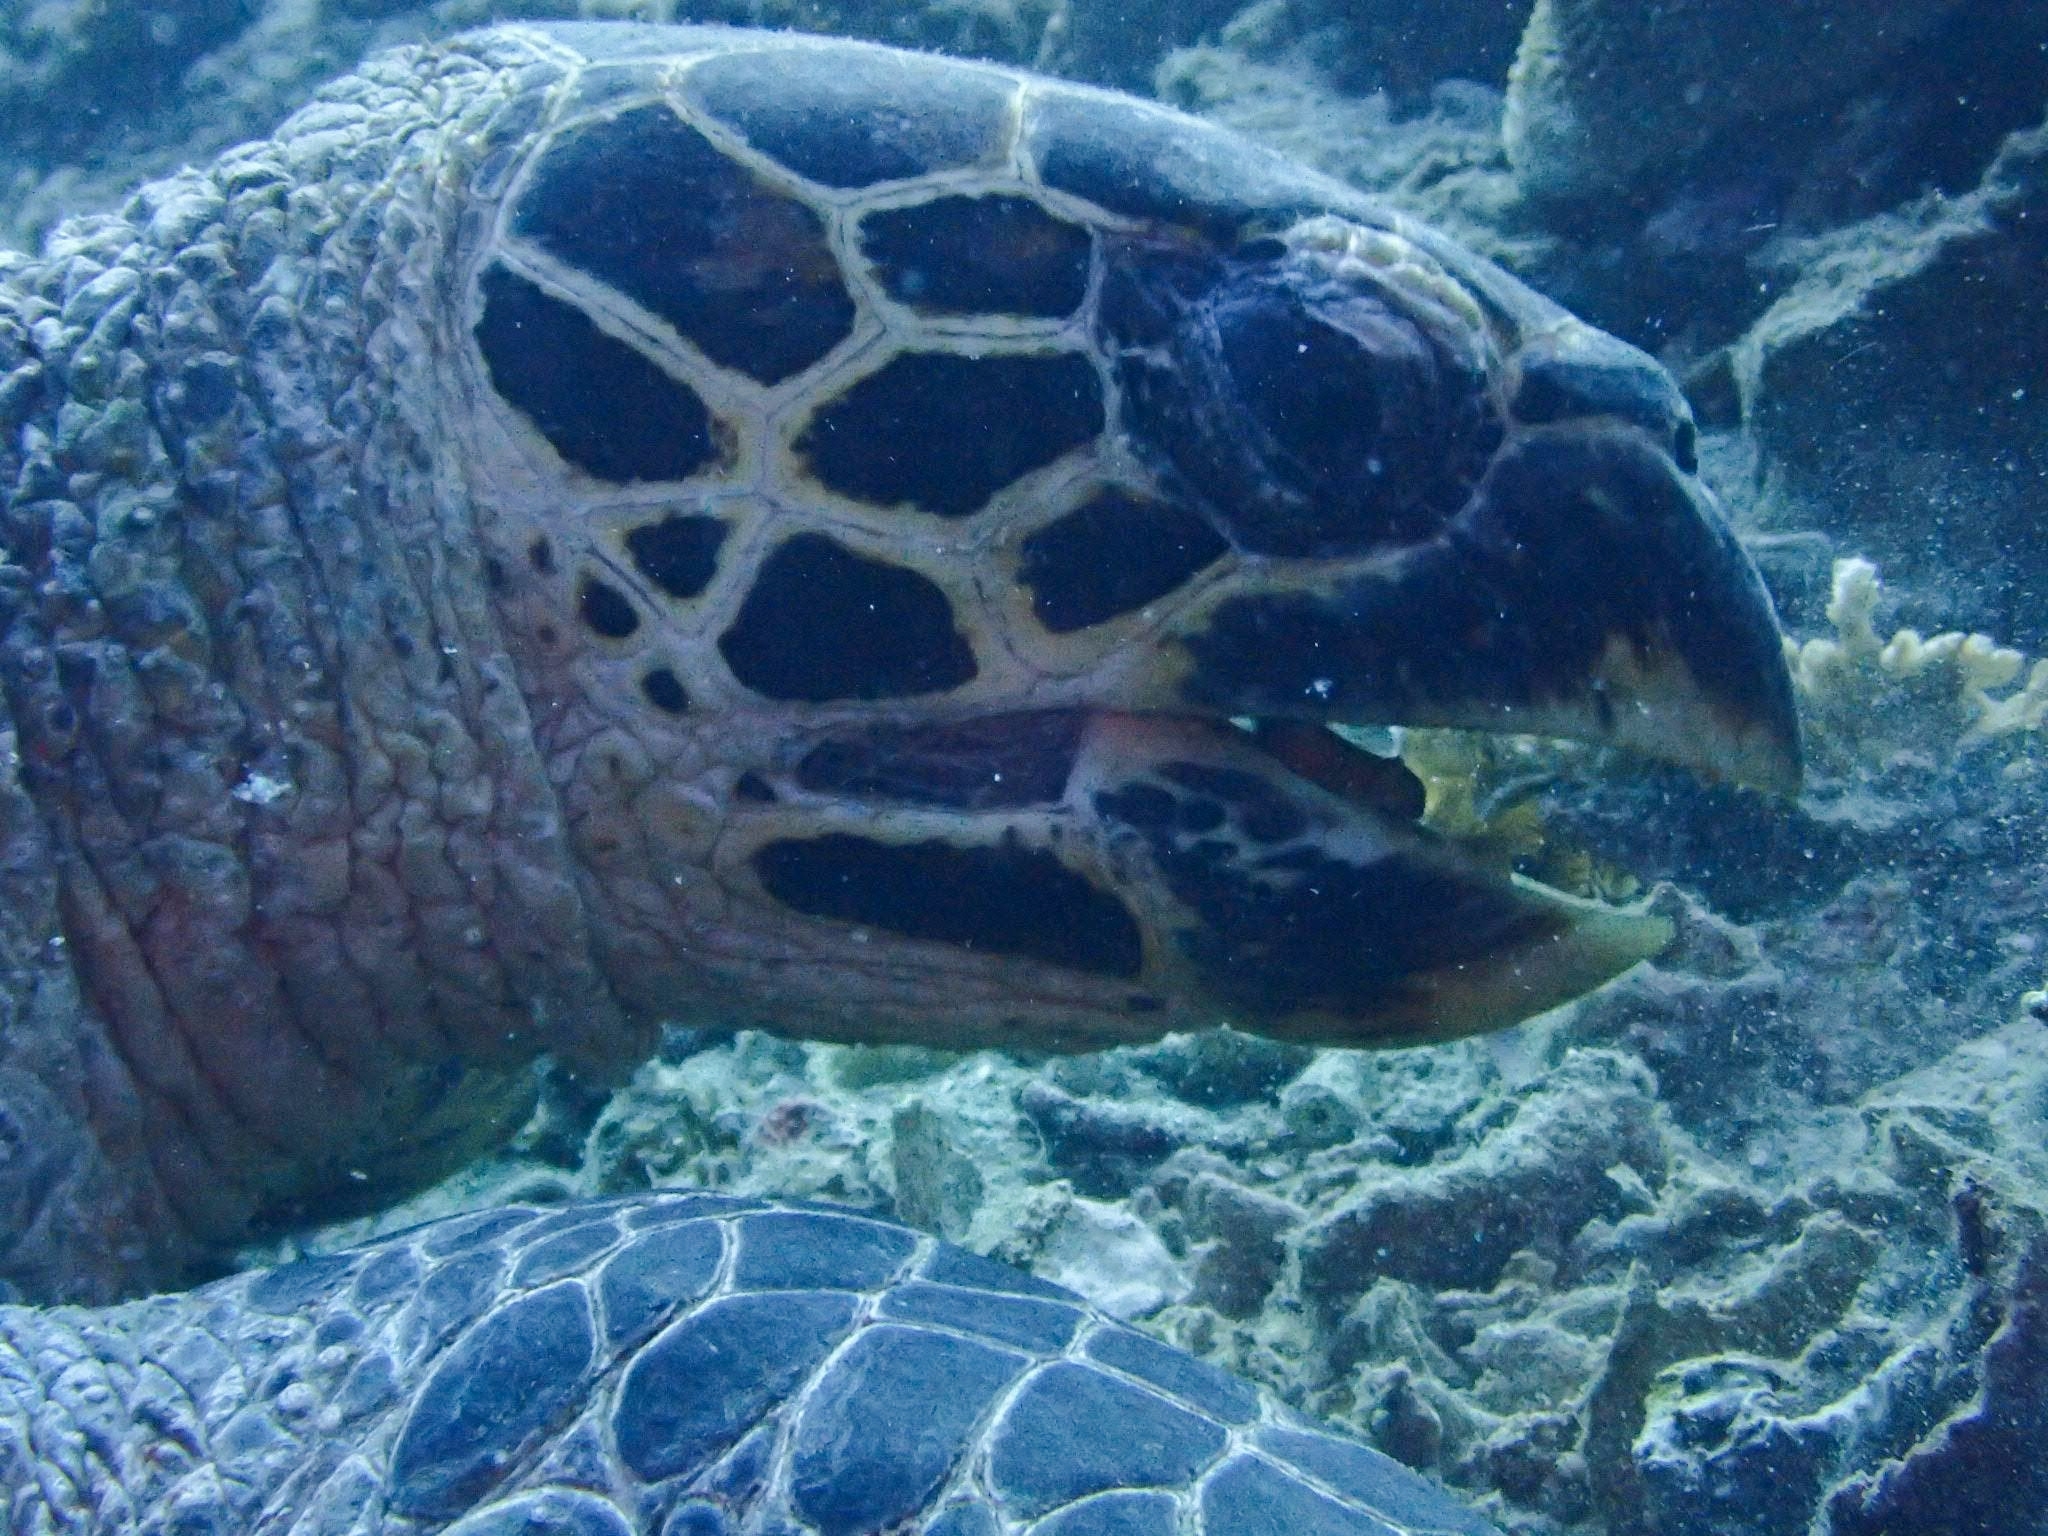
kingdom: Animalia
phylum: Chordata
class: Testudines
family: Cheloniidae
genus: Eretmochelys
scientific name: Eretmochelys imbricata
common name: Hawksbill turtle
